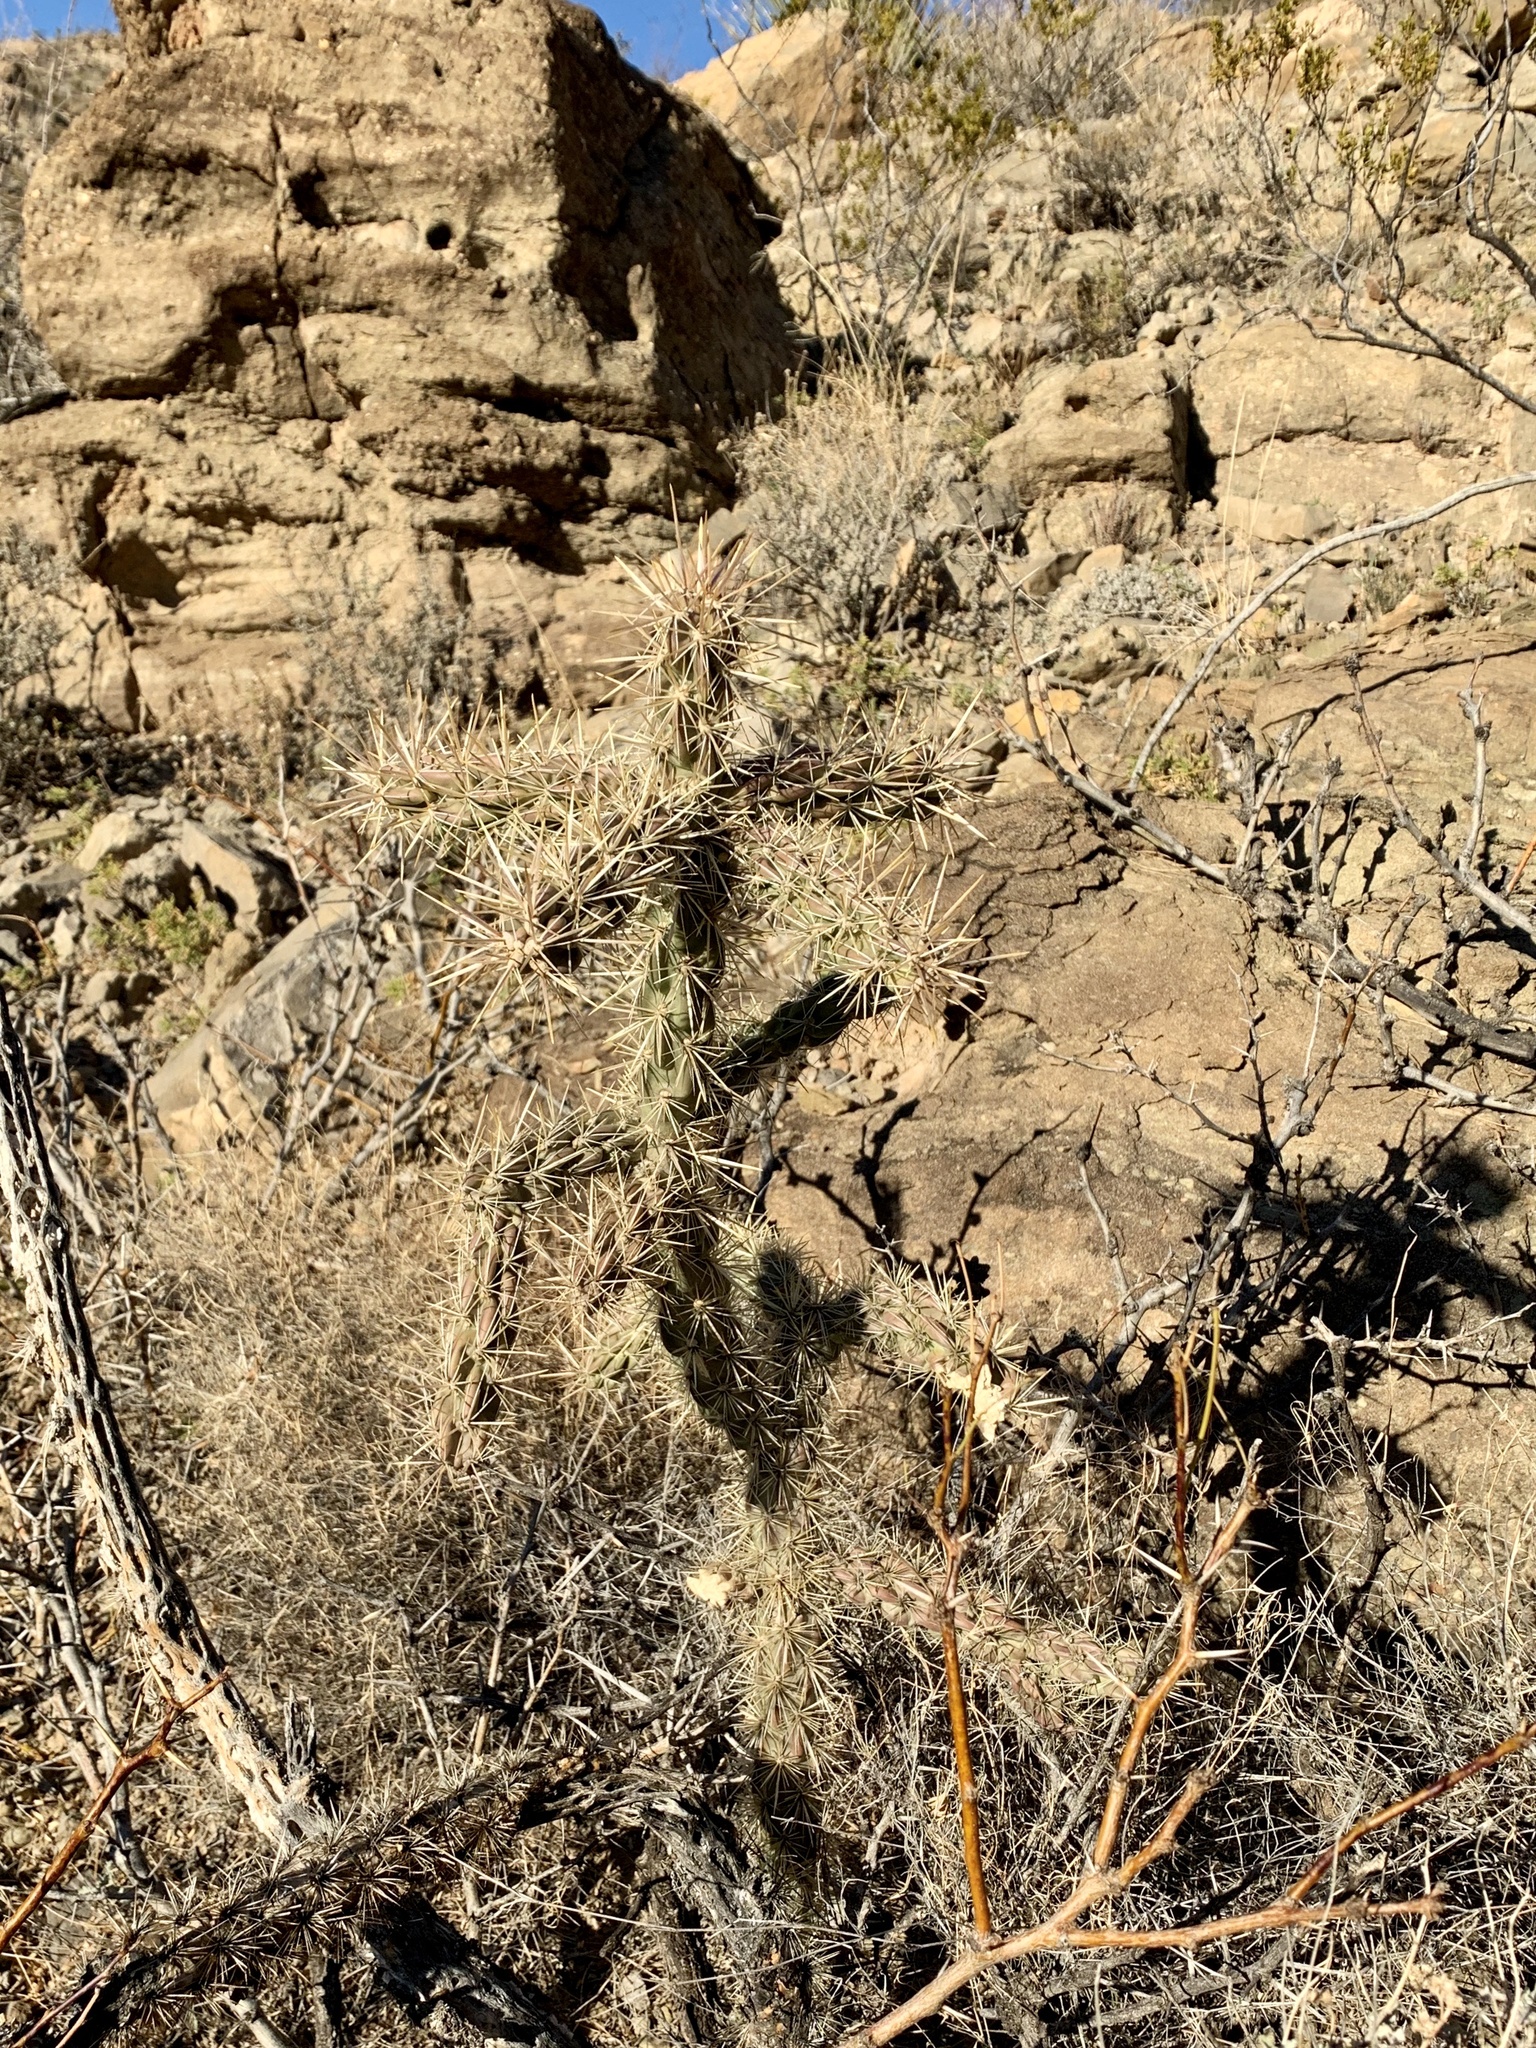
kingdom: Plantae
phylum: Tracheophyta
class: Magnoliopsida
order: Caryophyllales
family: Cactaceae
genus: Cylindropuntia
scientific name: Cylindropuntia imbricata
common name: Candelabrum cactus
